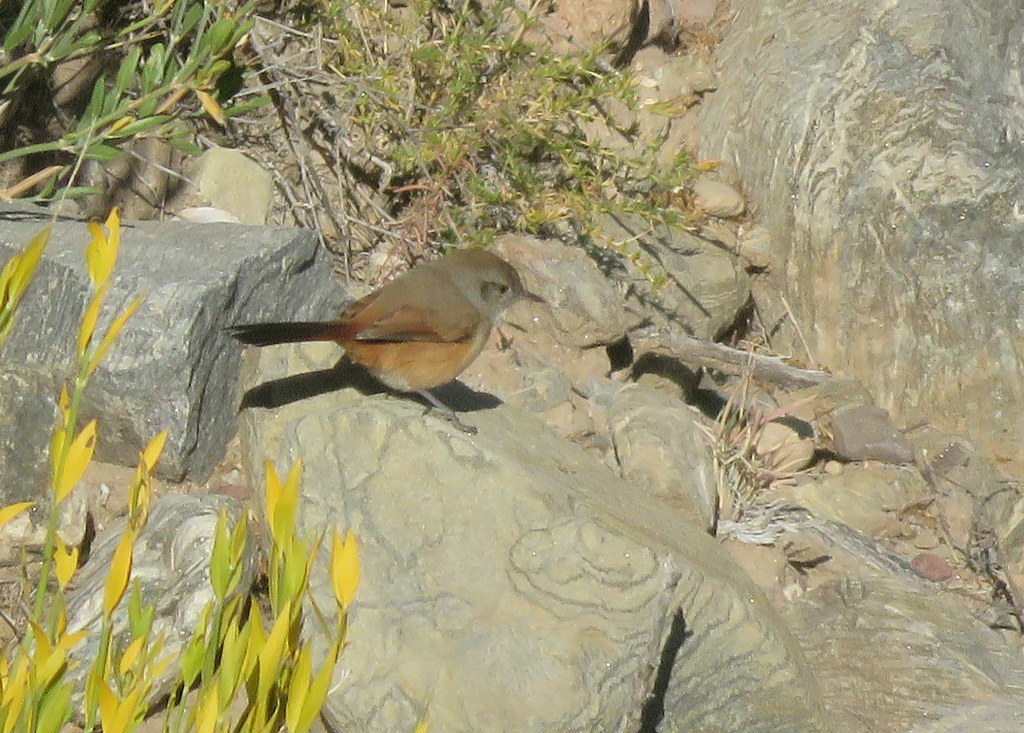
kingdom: Animalia
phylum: Chordata
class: Aves
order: Passeriformes
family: Furnariidae
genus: Asthenes
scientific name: Asthenes dorbignyi
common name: Rusty-vented canastero
